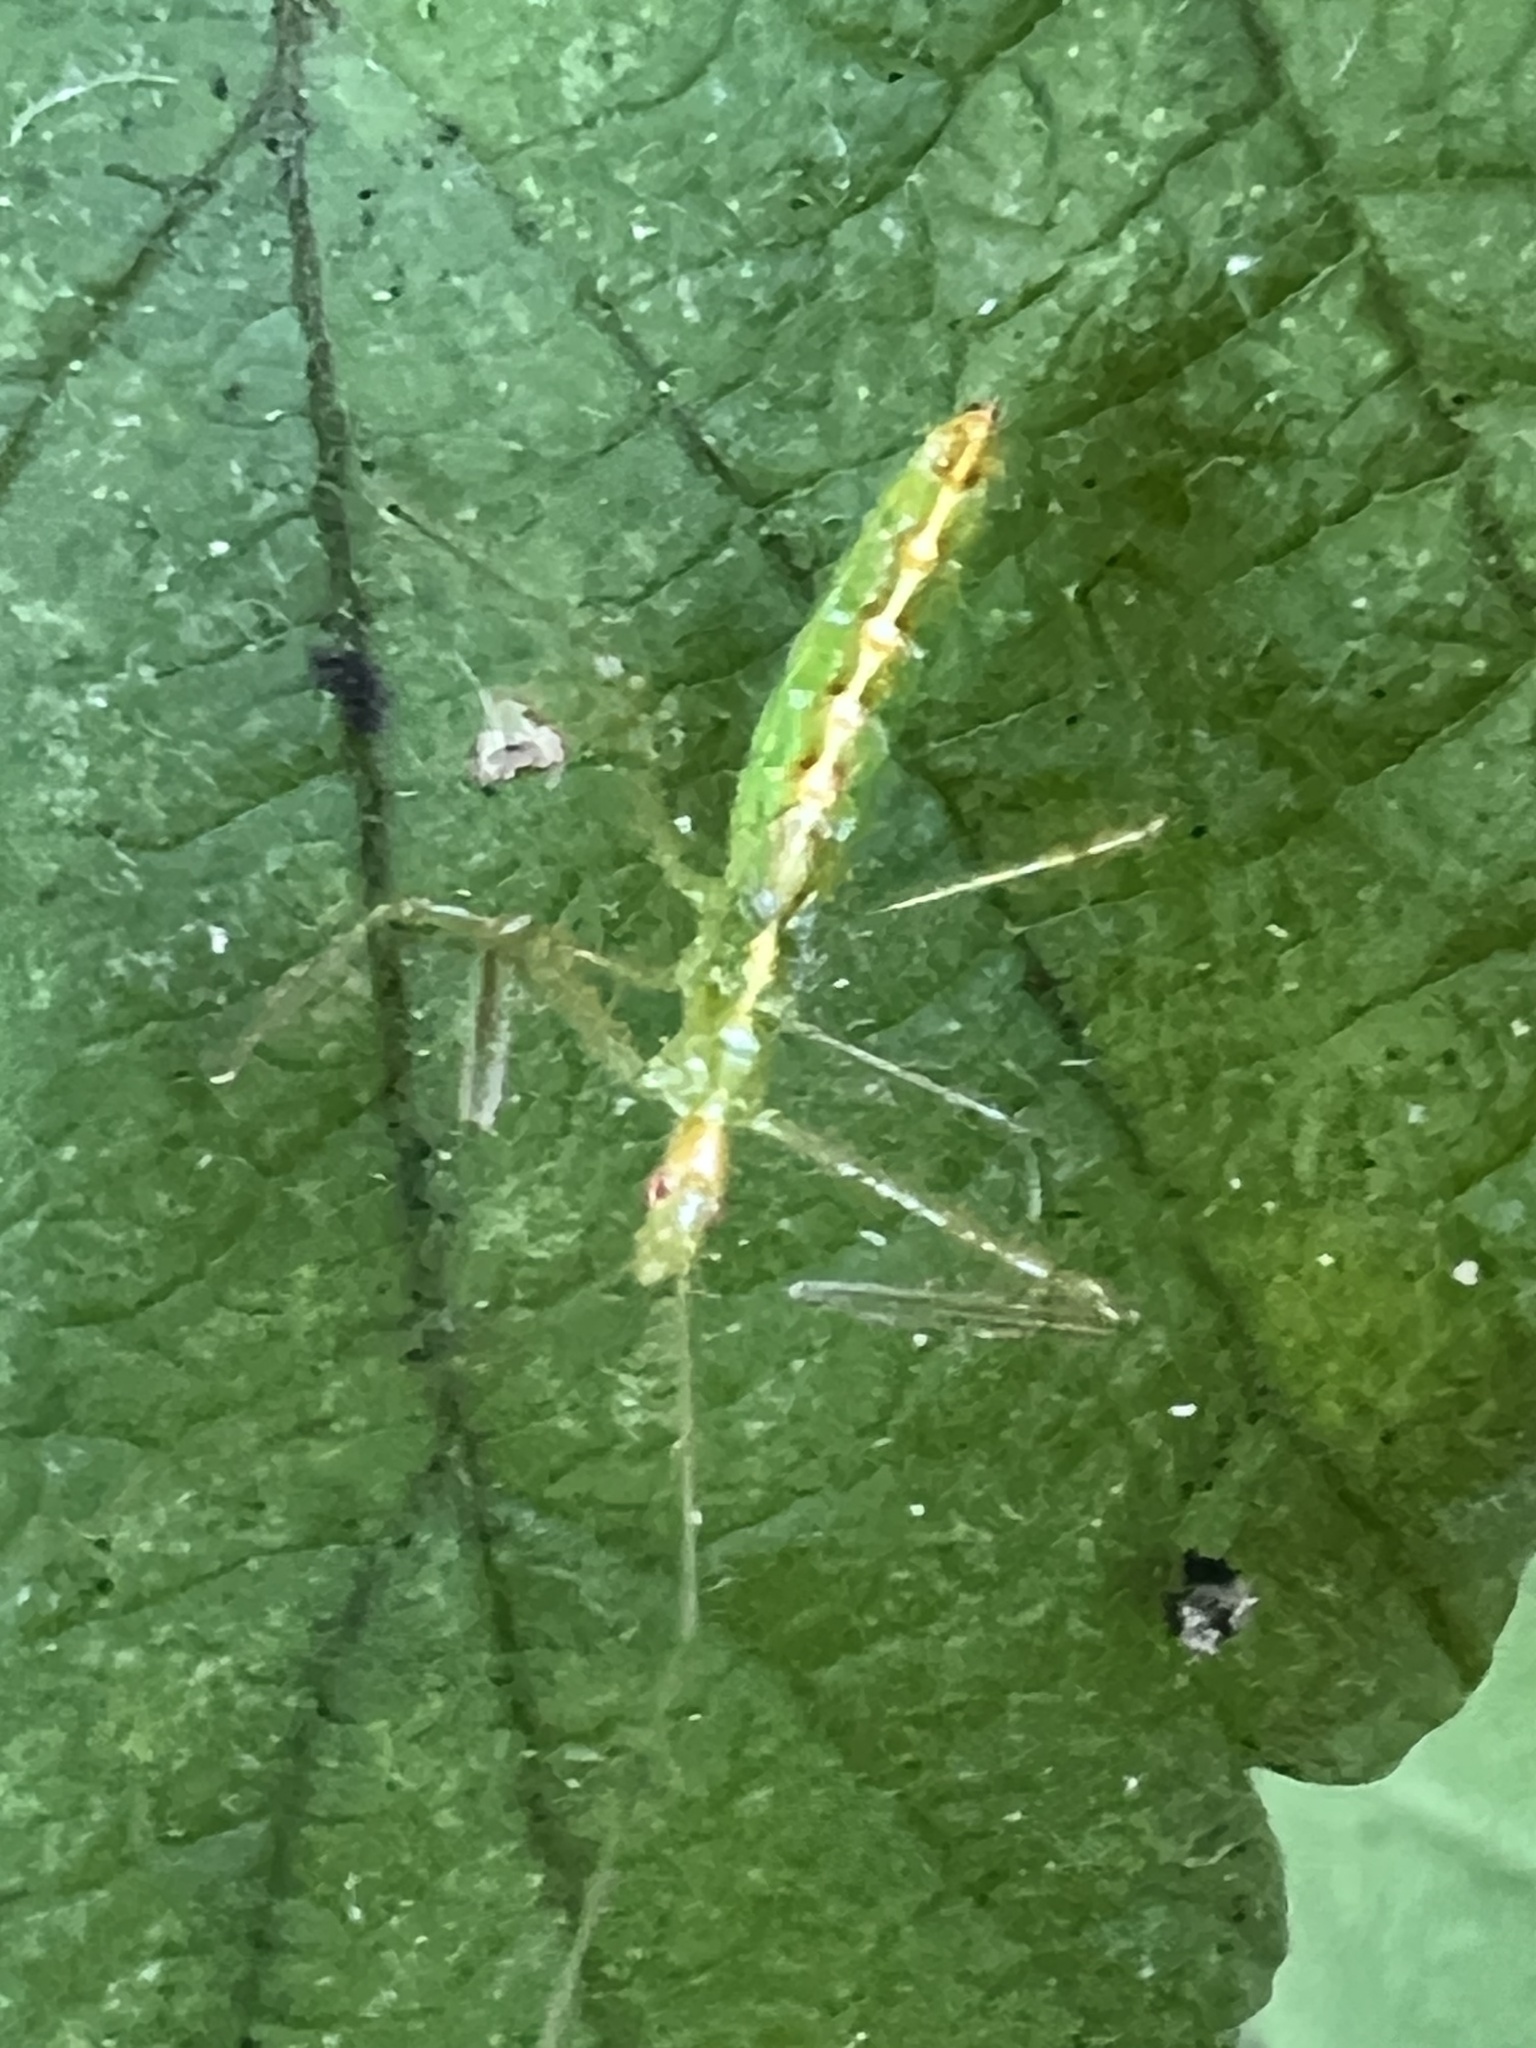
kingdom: Animalia
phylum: Arthropoda
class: Insecta
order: Hemiptera
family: Reduviidae
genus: Zelus
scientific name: Zelus luridus
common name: Pale green assassin bug
